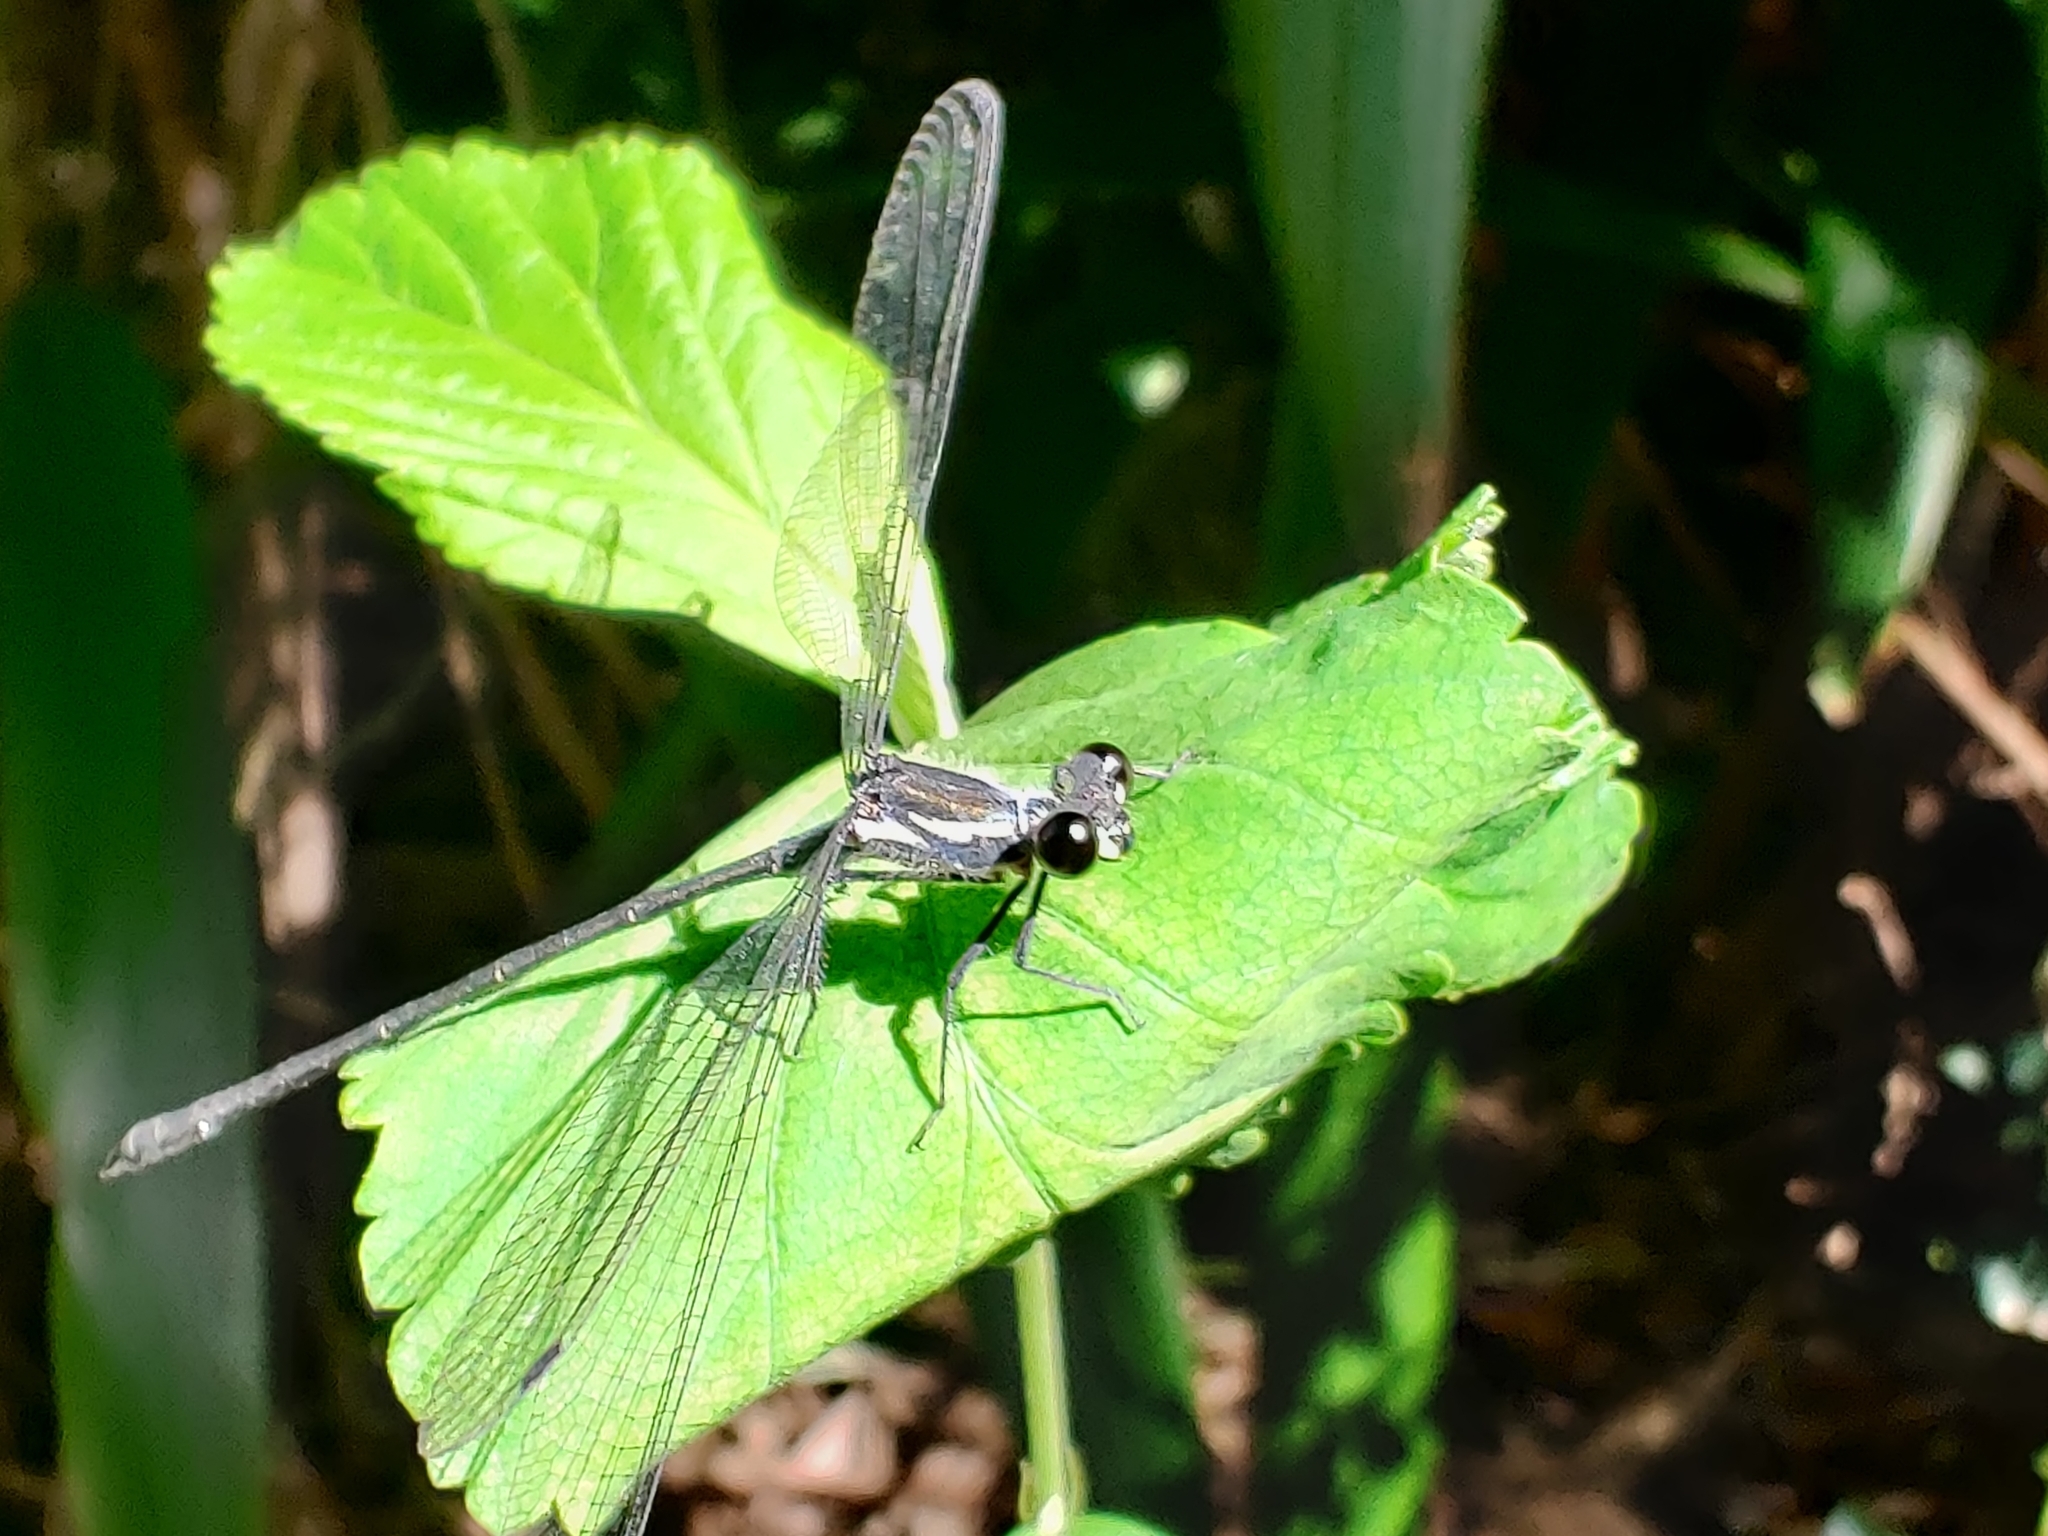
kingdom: Animalia
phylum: Arthropoda
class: Insecta
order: Odonata
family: Argiolestidae
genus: Austroargiolestes
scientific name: Austroargiolestes icteromelas
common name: Common flatwing
